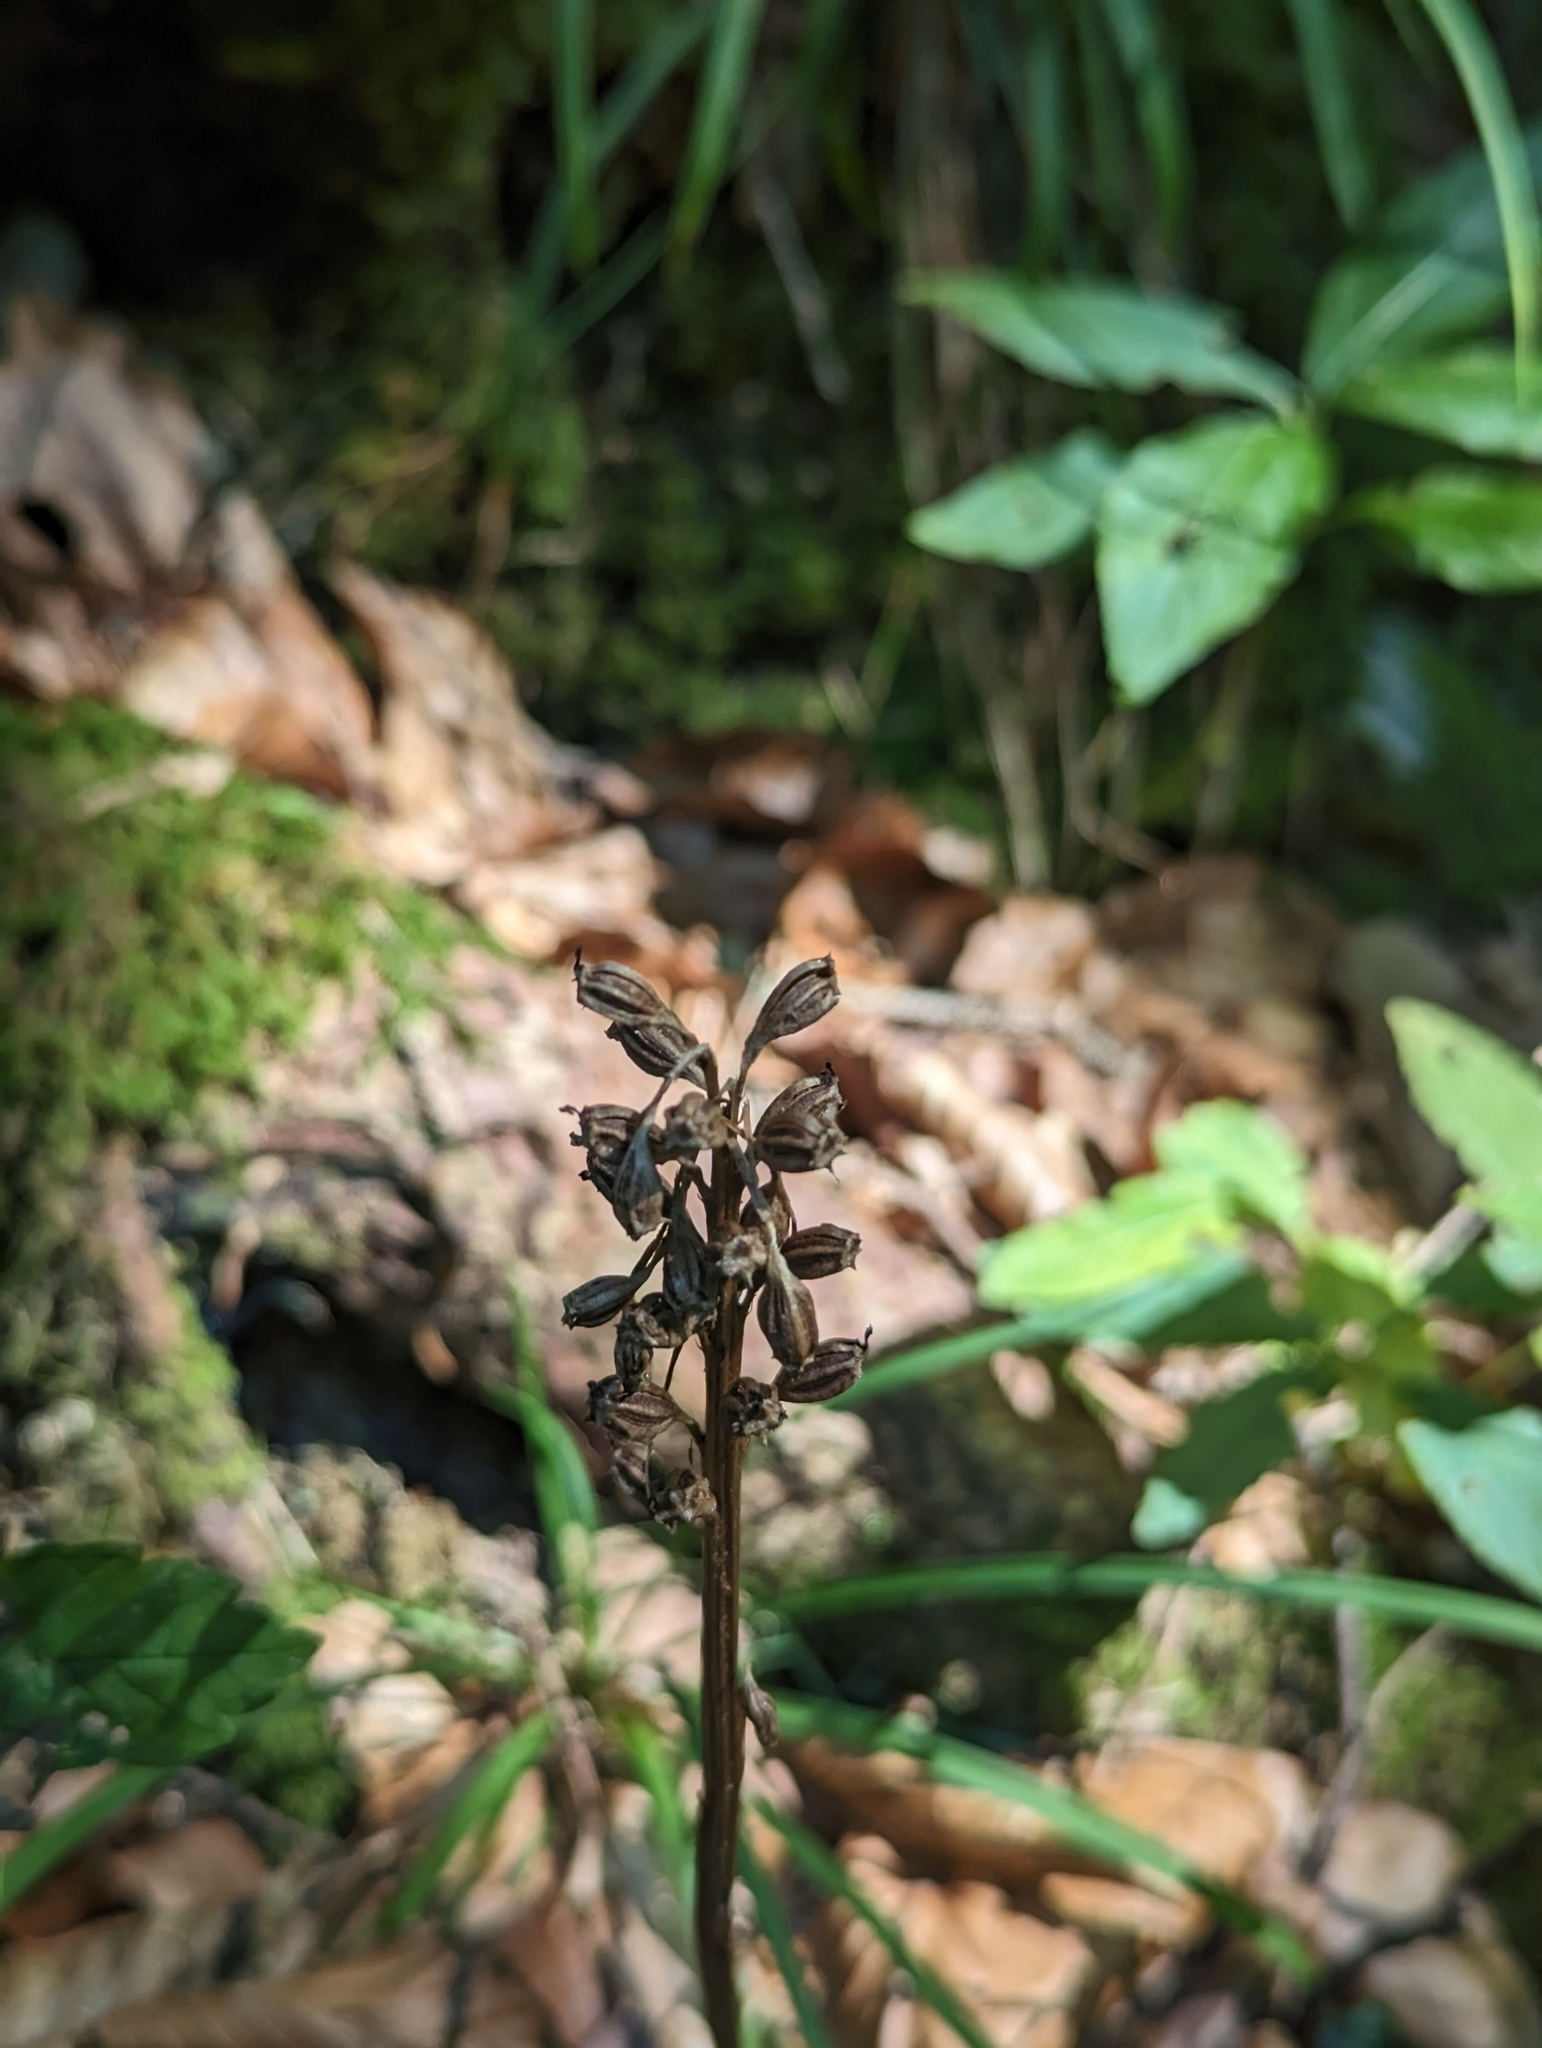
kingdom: Plantae
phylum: Tracheophyta
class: Liliopsida
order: Asparagales
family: Orchidaceae
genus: Neottia
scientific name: Neottia nidus-avis
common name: Bird's-nest orchid
